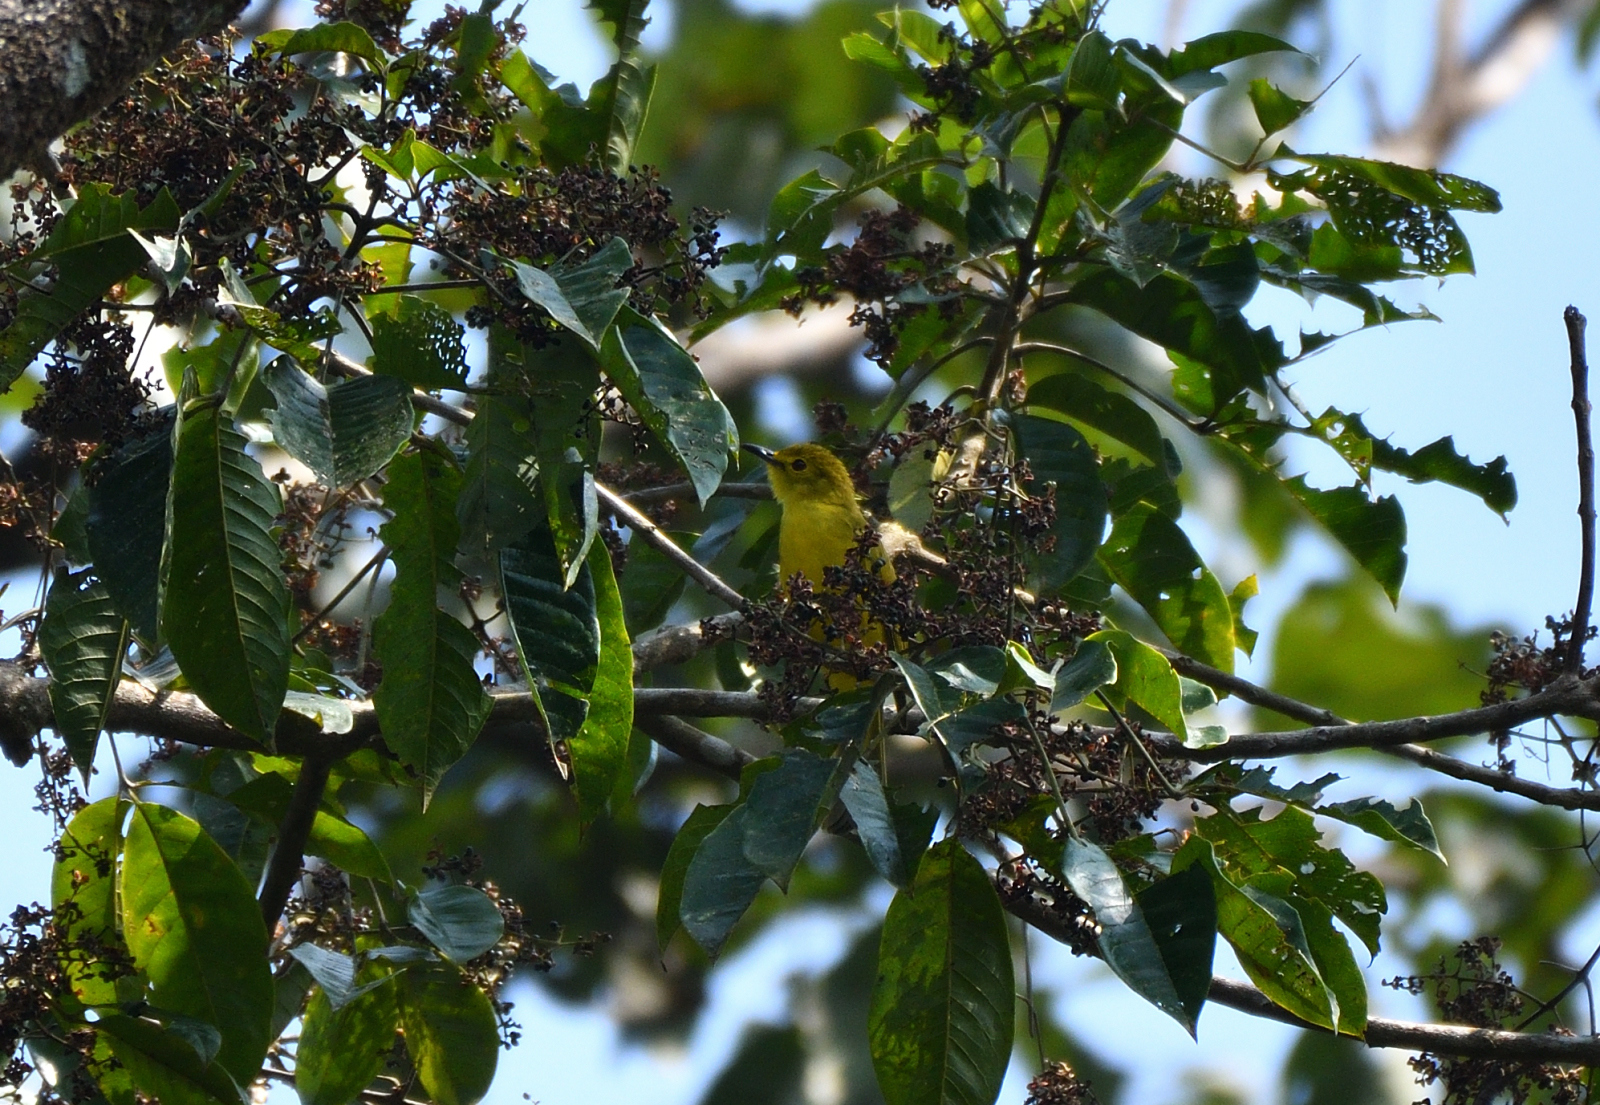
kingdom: Animalia
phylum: Chordata
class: Aves
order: Passeriformes
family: Pycnonotidae
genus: Acritillas
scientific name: Acritillas indica
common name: Yellow-browed bulbul
